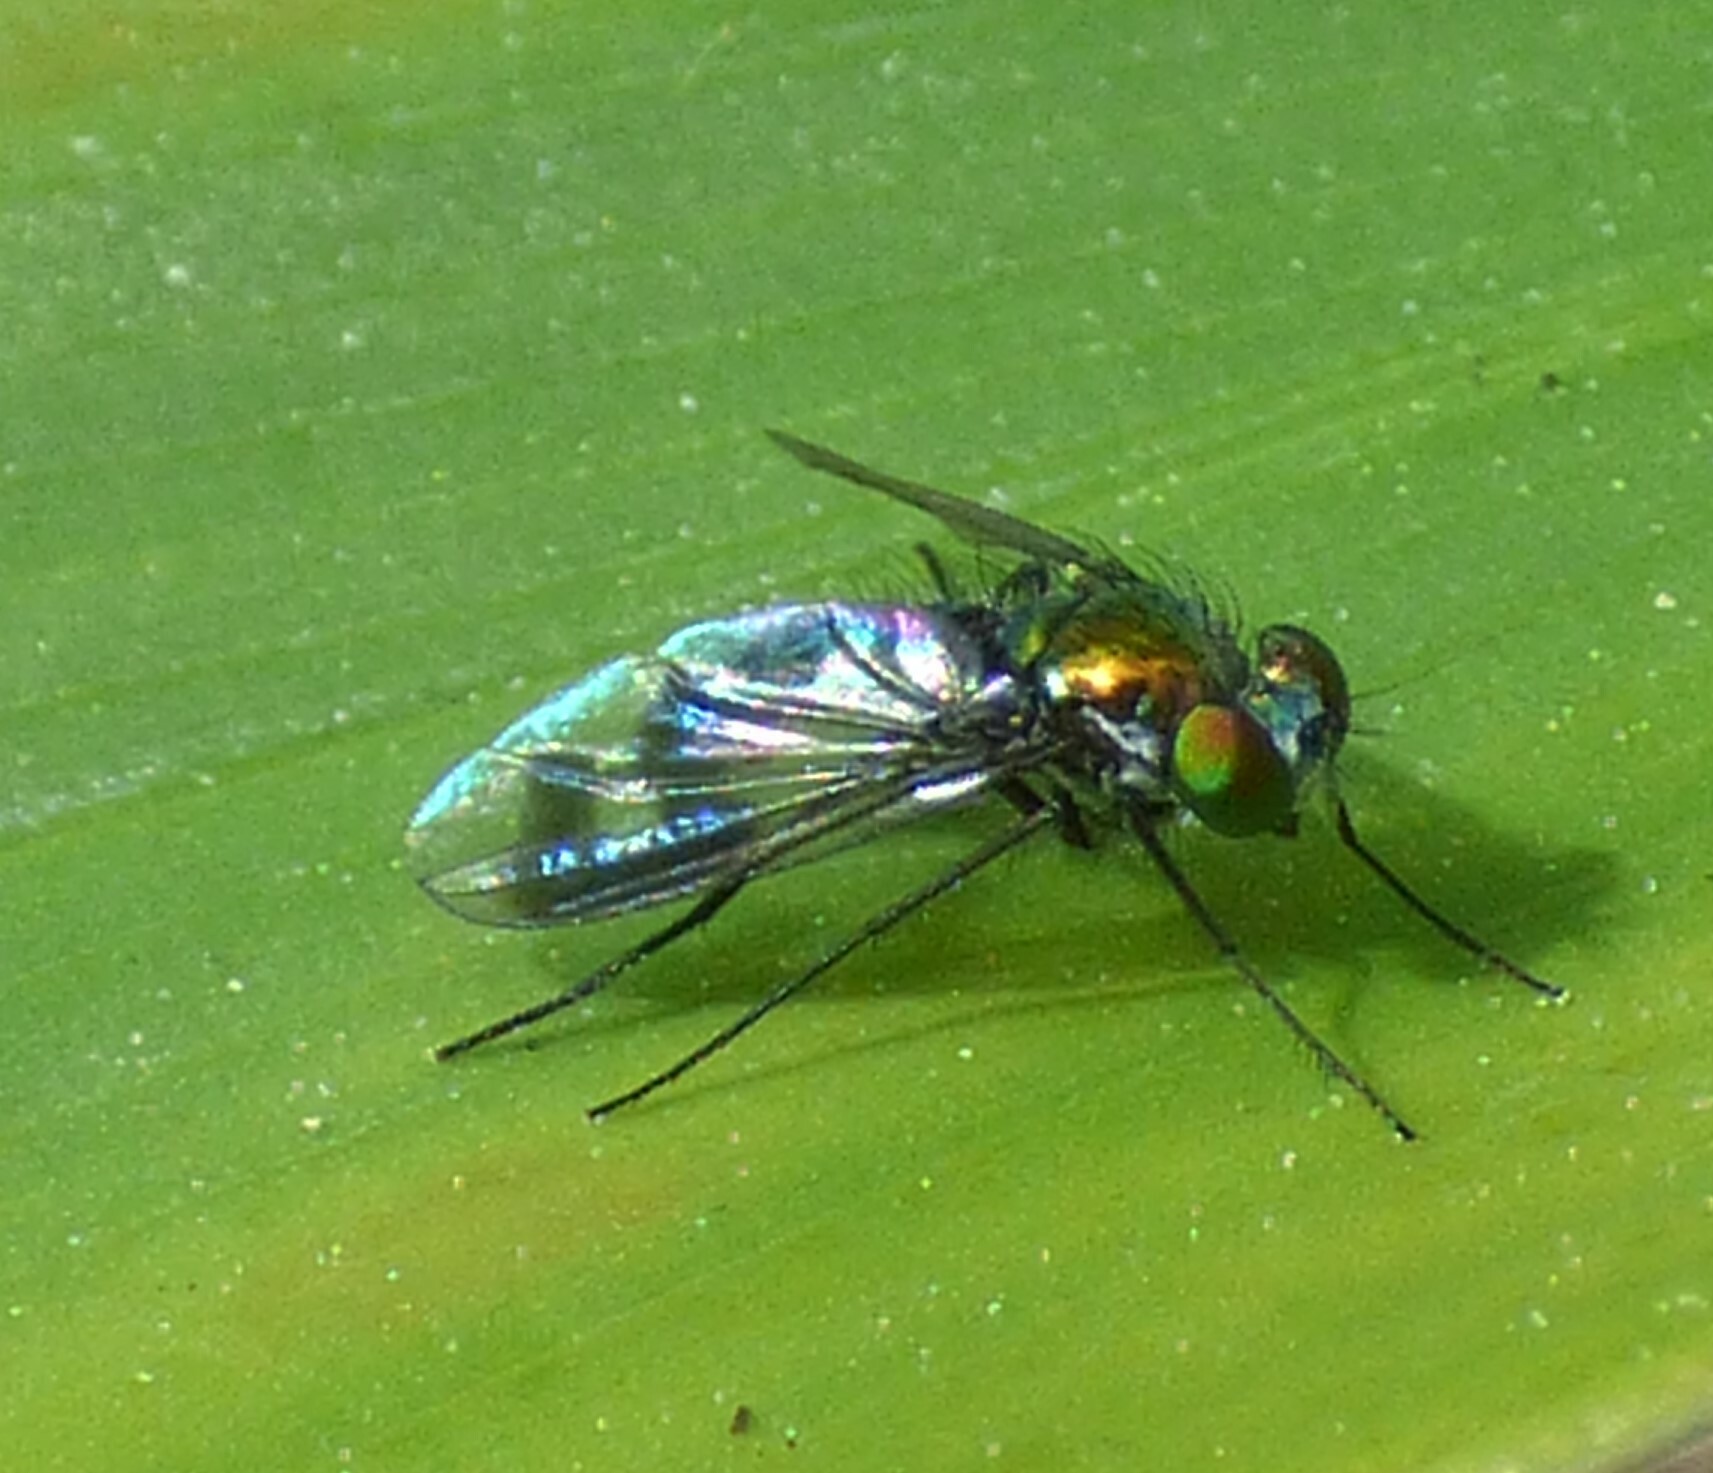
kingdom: Animalia
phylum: Arthropoda
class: Insecta
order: Diptera
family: Dolichopodidae
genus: Condylostylus
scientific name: Condylostylus patibulatus
